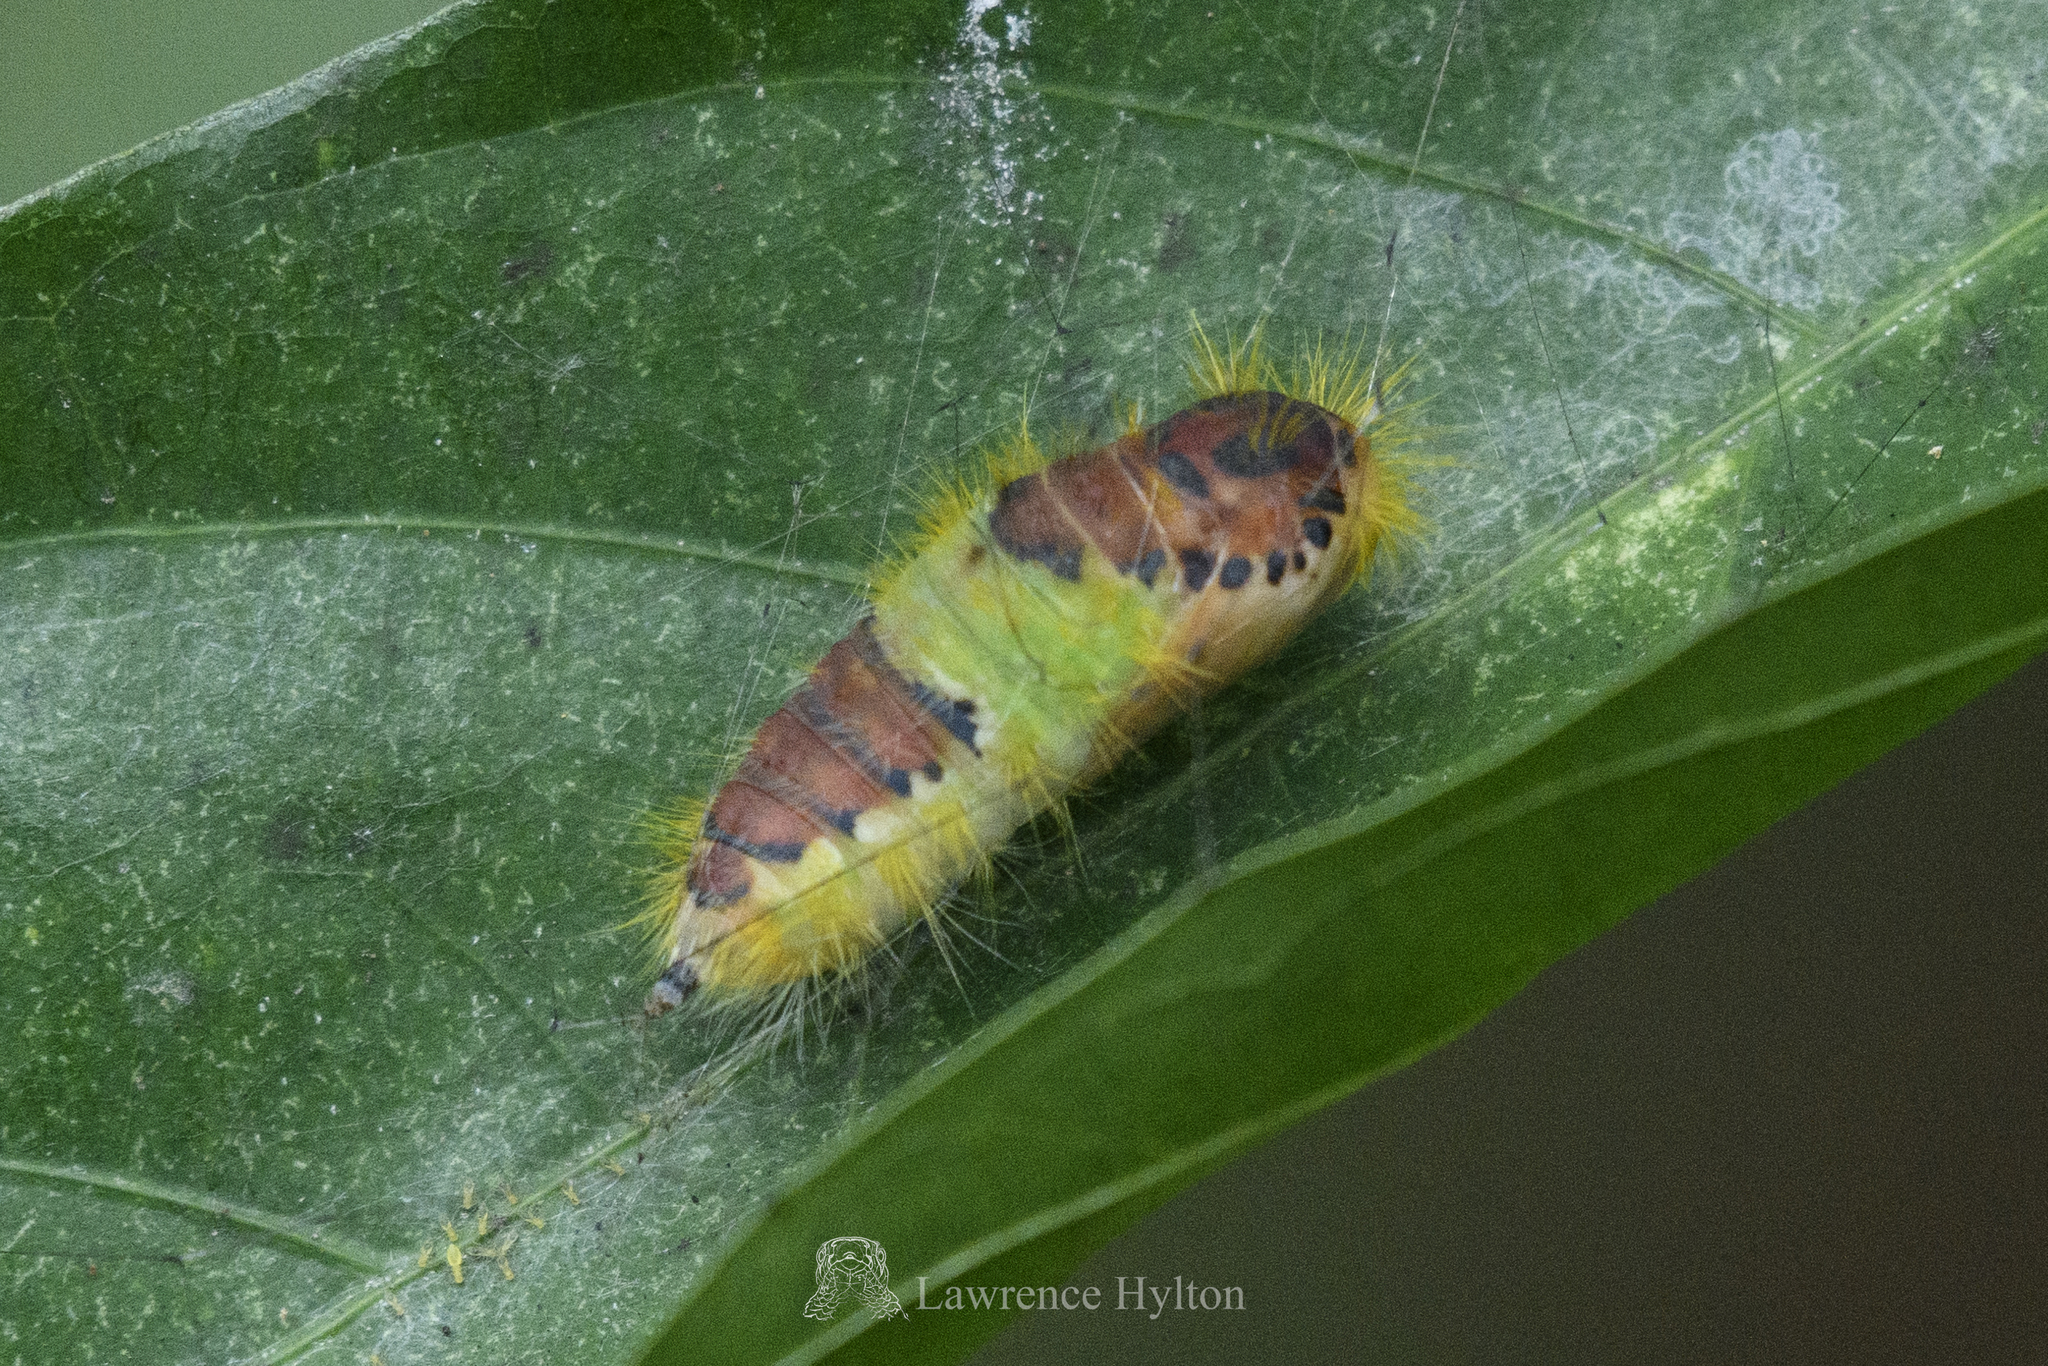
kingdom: Animalia
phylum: Arthropoda
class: Insecta
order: Lepidoptera
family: Erebidae
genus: Perina
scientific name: Perina nuda
